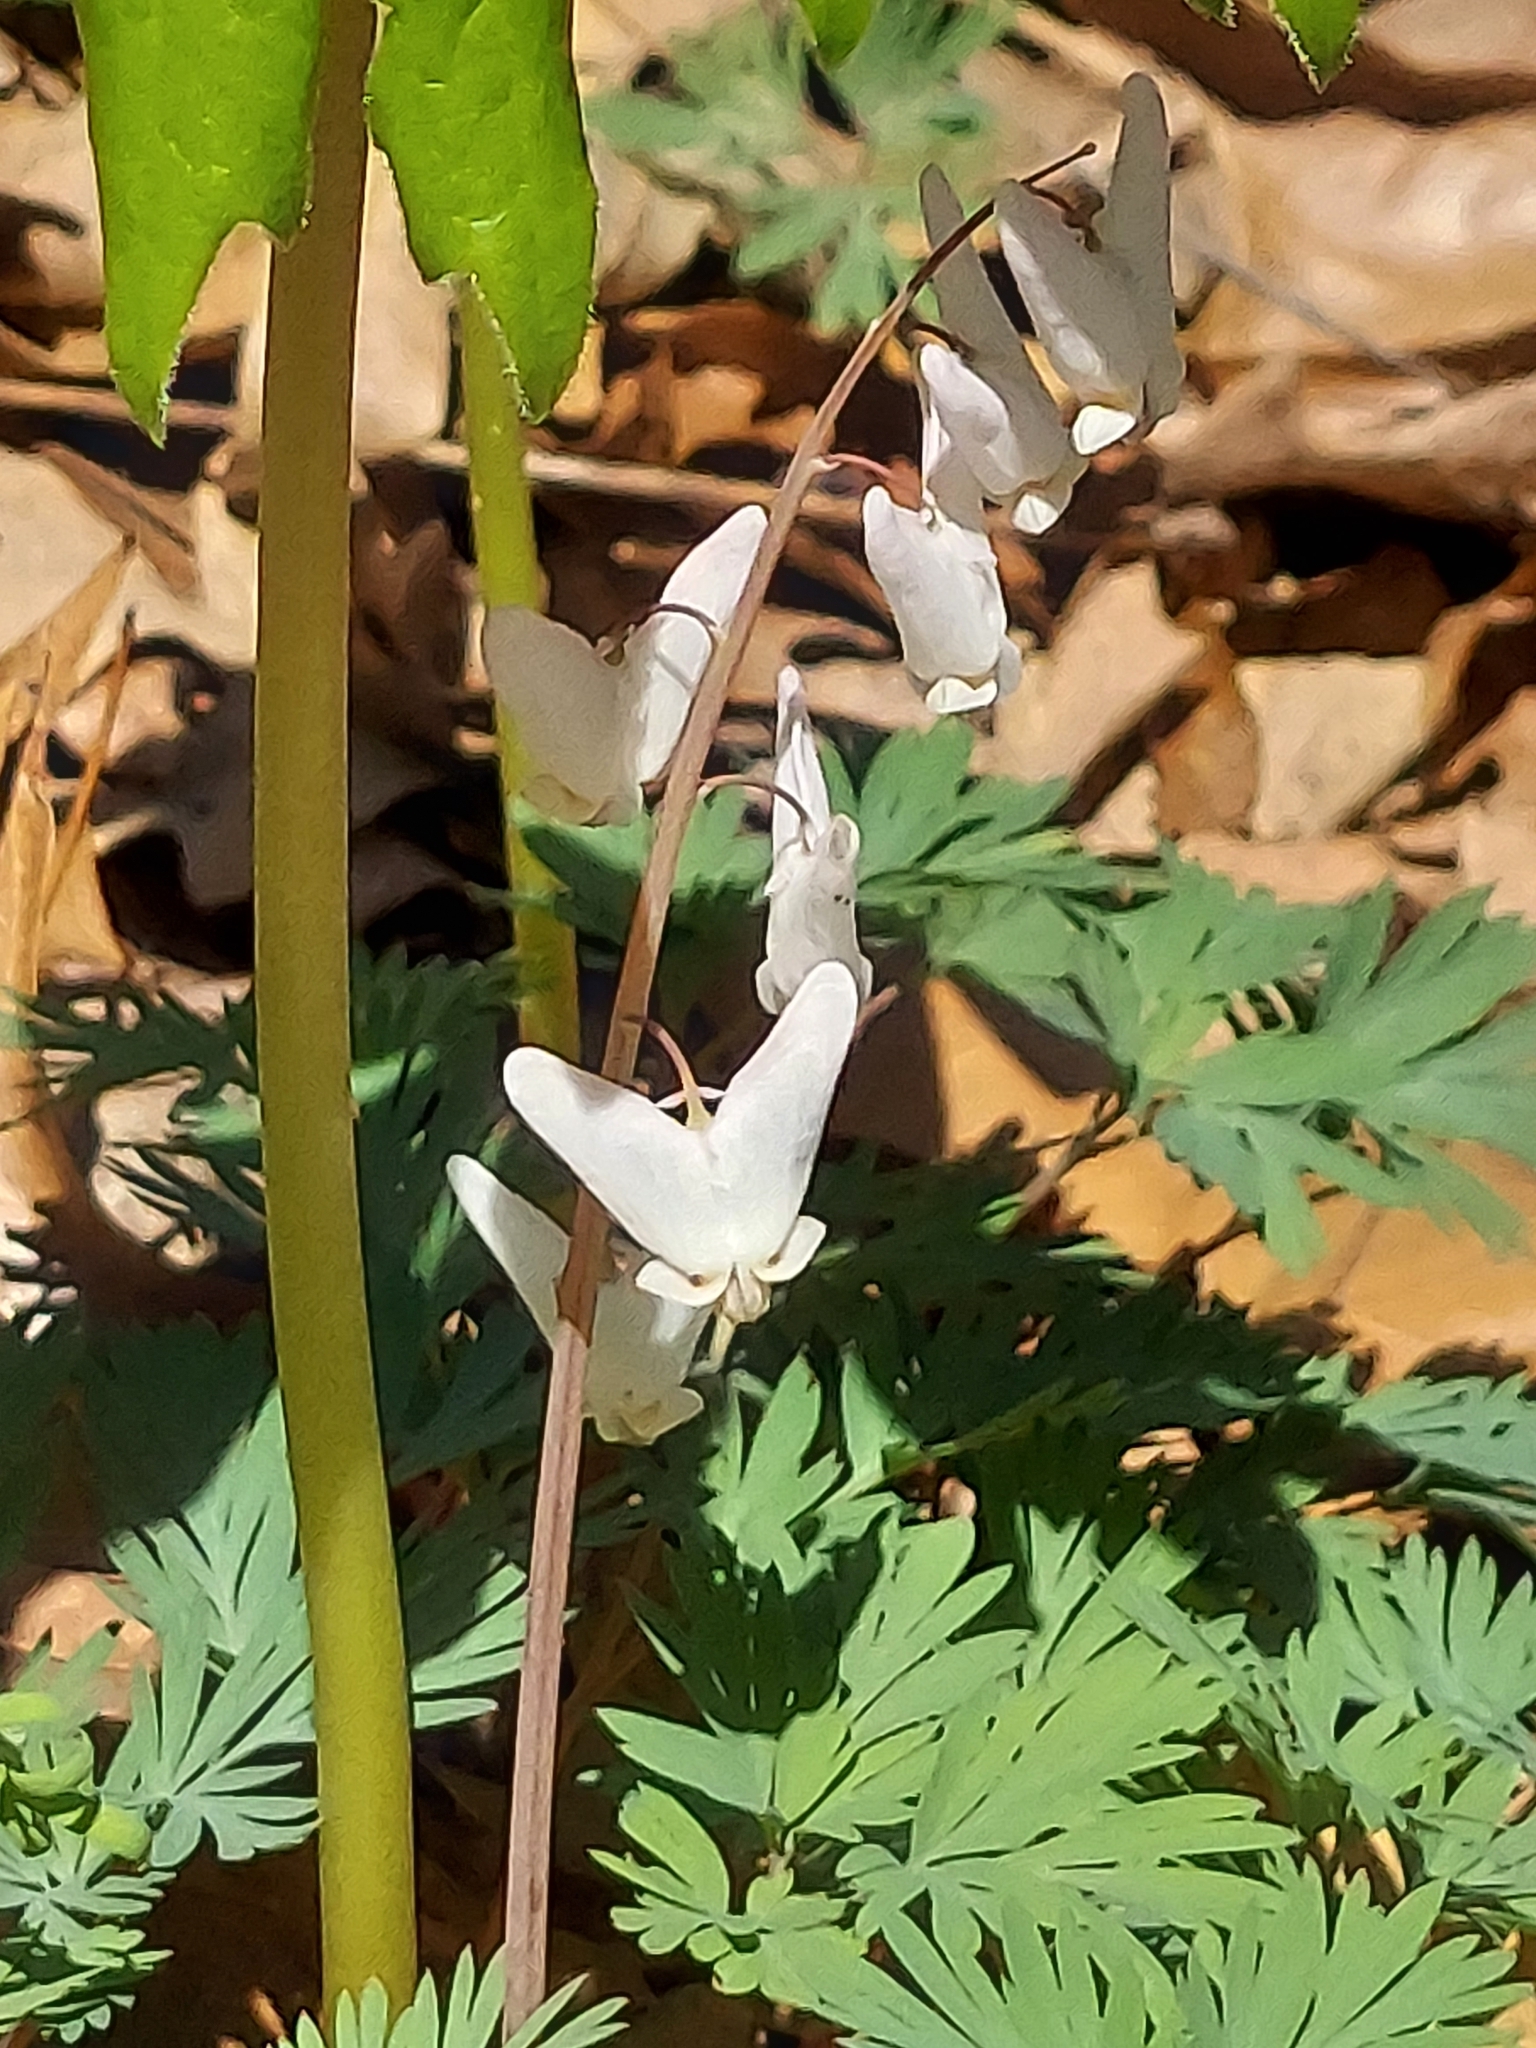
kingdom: Plantae
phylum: Tracheophyta
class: Magnoliopsida
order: Ranunculales
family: Papaveraceae
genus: Dicentra
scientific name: Dicentra cucullaria
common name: Dutchman's breeches
